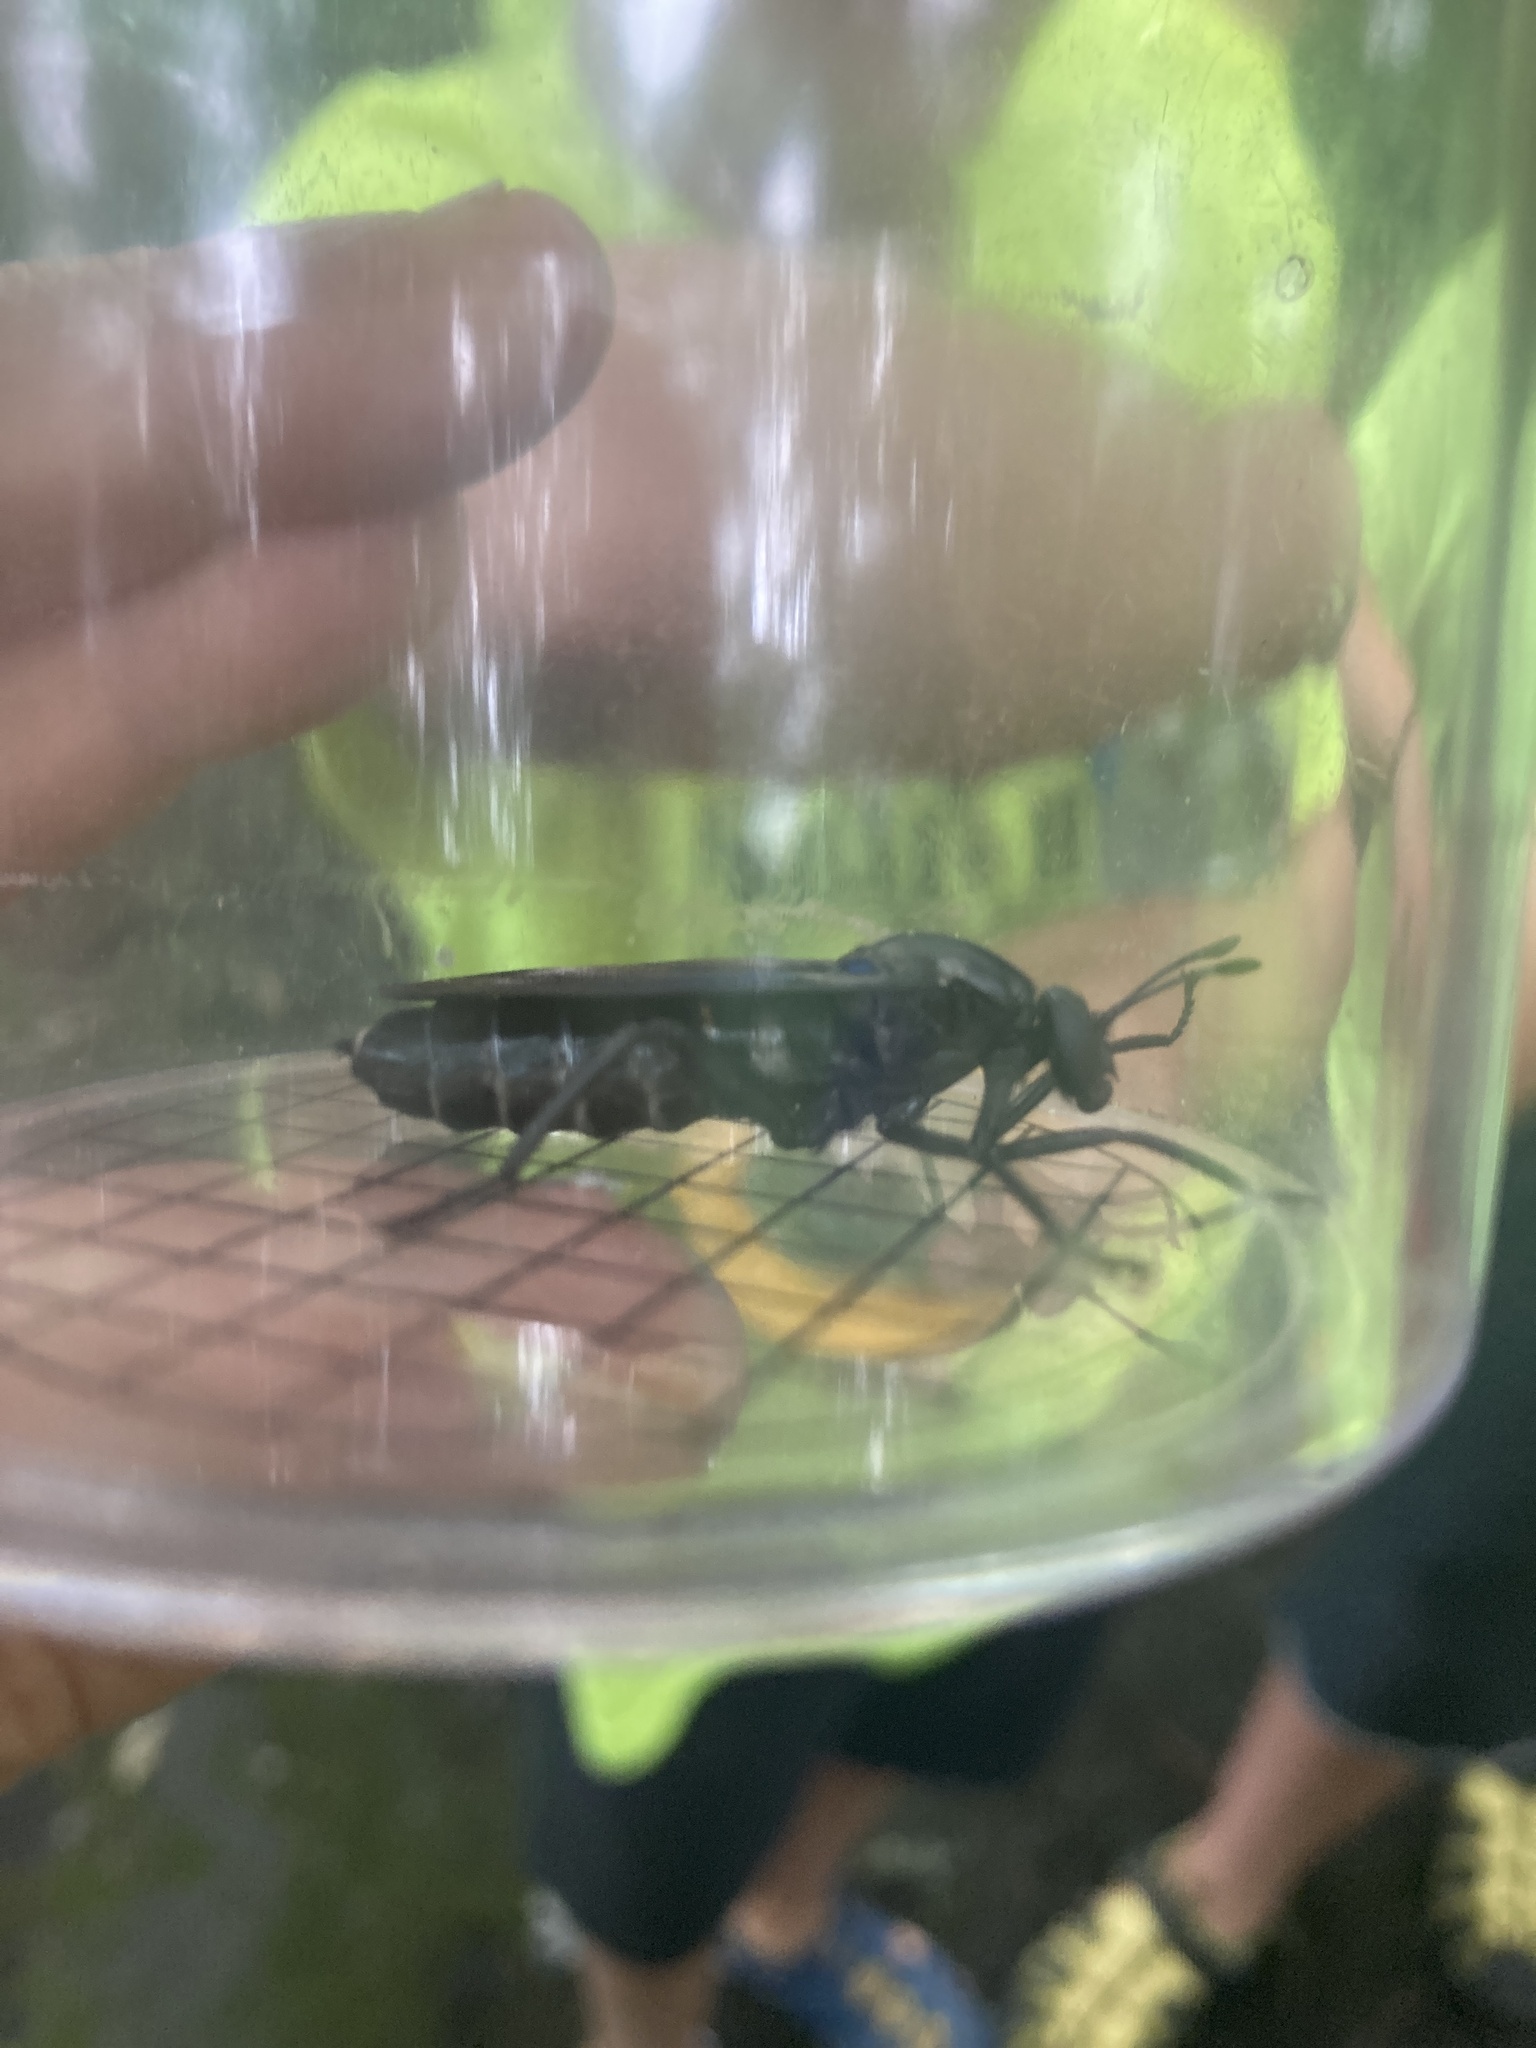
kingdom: Animalia
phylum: Arthropoda
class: Insecta
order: Diptera
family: Mydidae
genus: Mydas
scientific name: Mydas atratus
